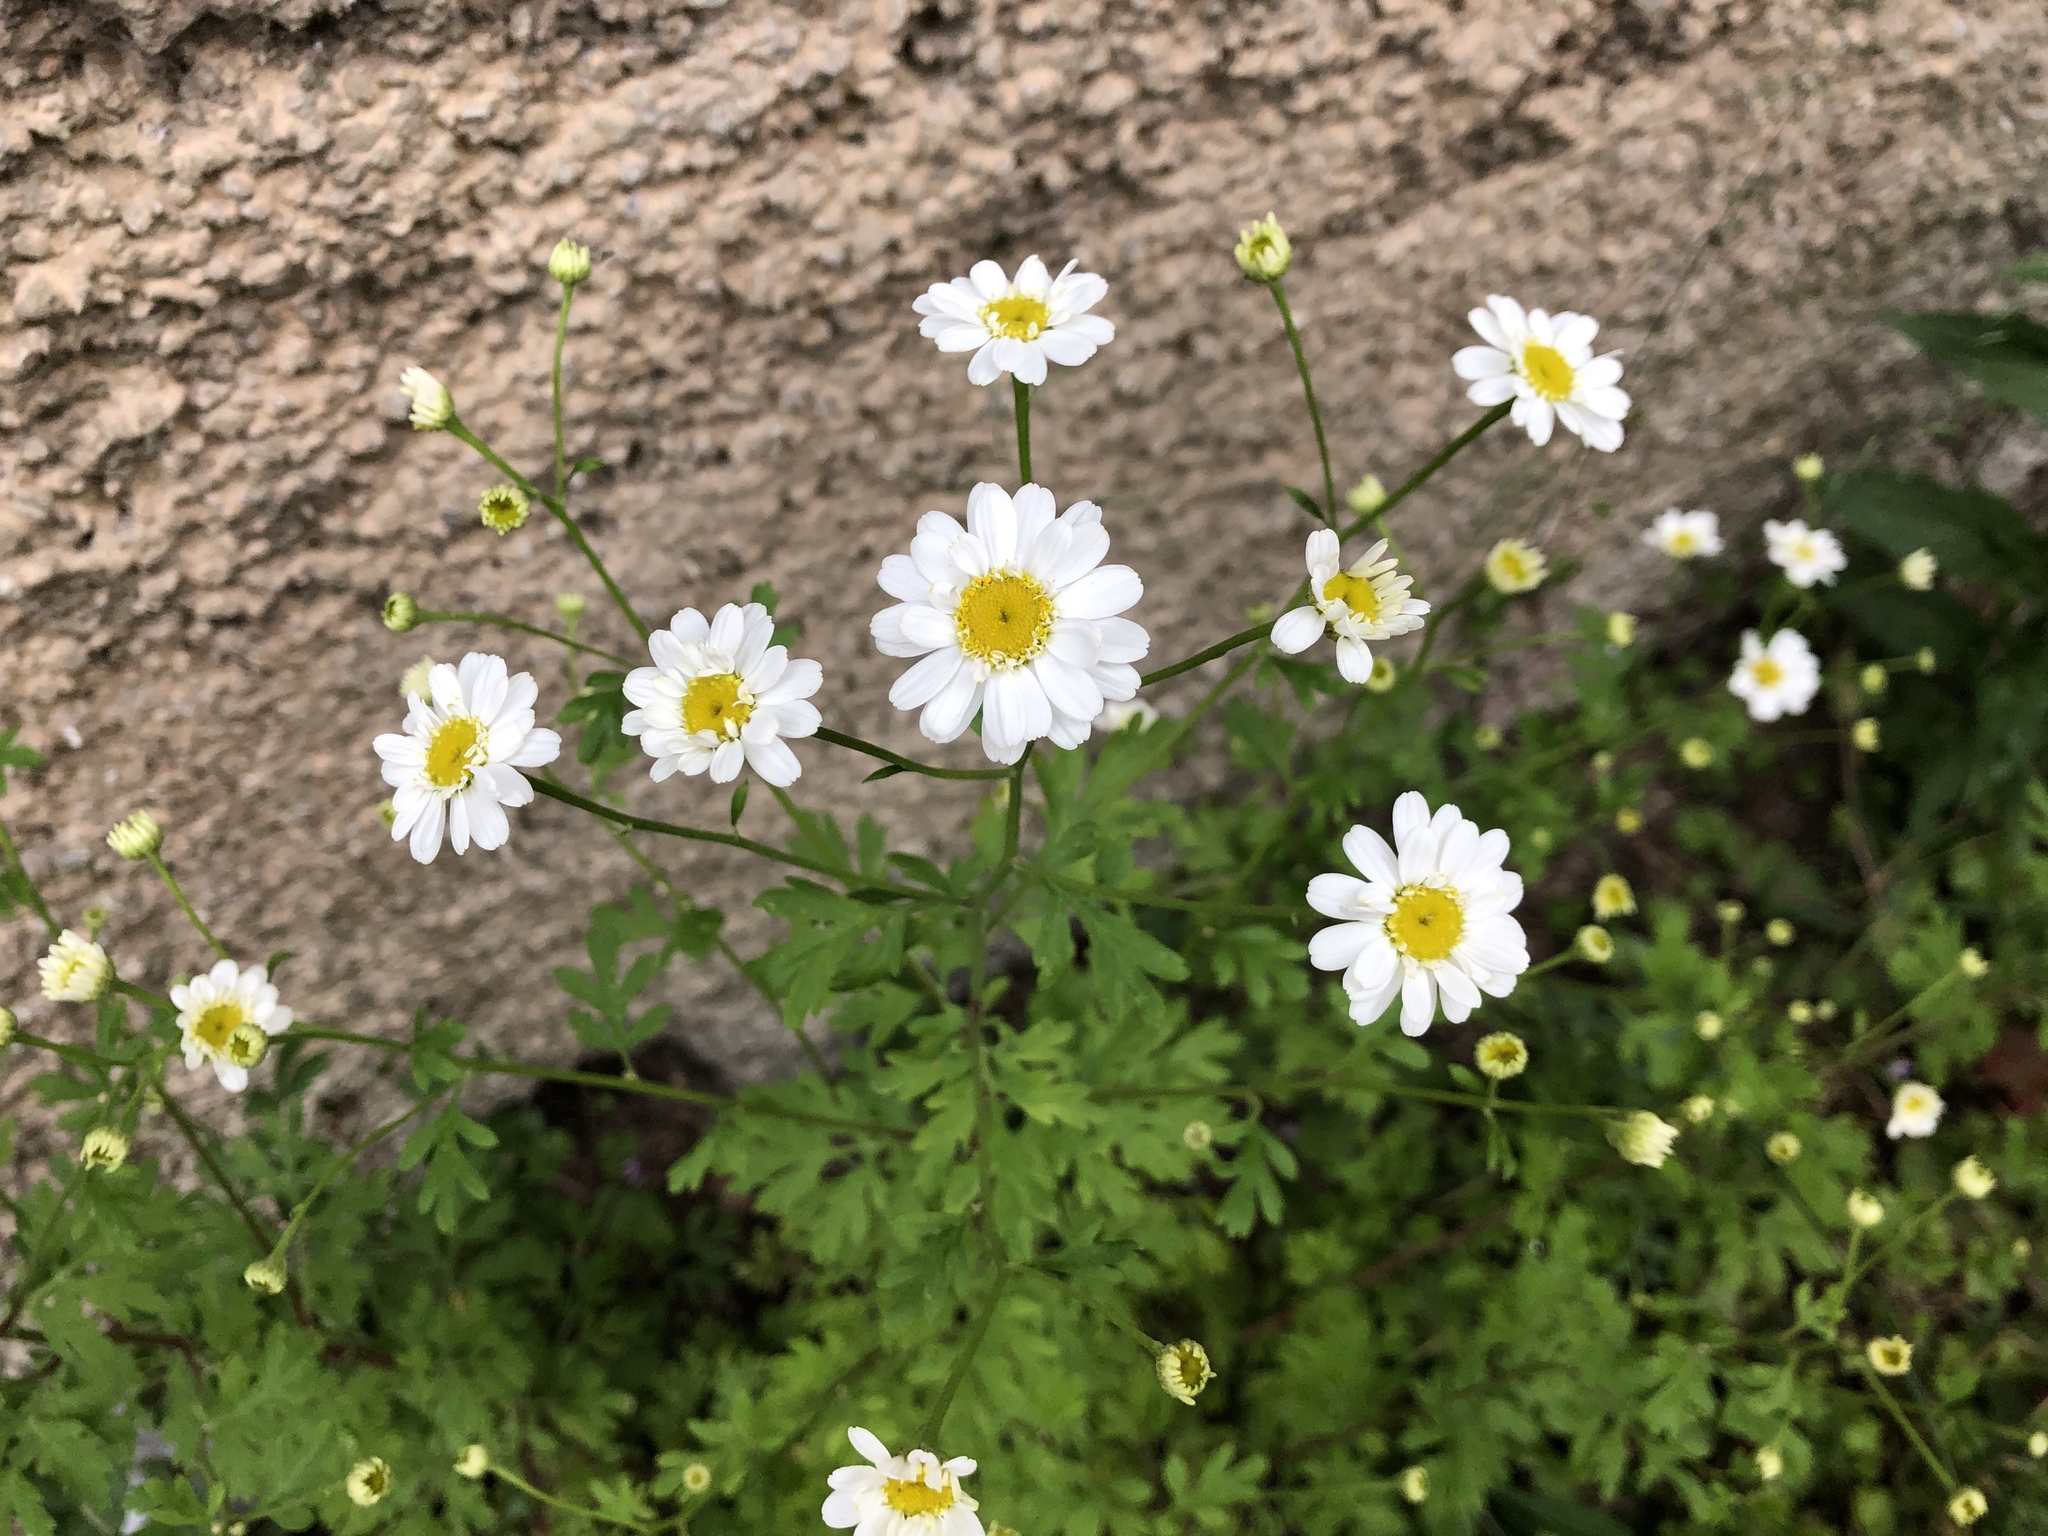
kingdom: Plantae
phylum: Tracheophyta
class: Magnoliopsida
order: Asterales
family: Asteraceae
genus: Tanacetum
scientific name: Tanacetum parthenium
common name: Feverfew
